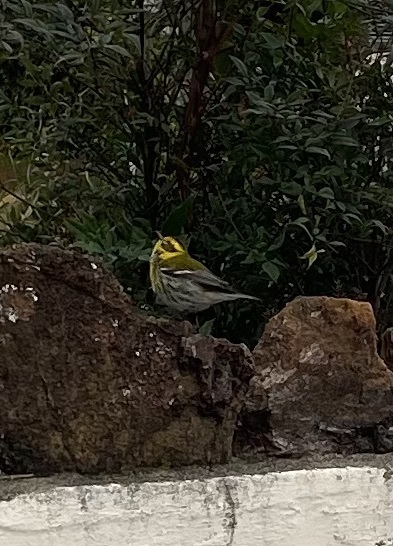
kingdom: Animalia
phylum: Chordata
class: Aves
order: Passeriformes
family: Parulidae
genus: Setophaga
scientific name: Setophaga townsendi
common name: Townsend's warbler
